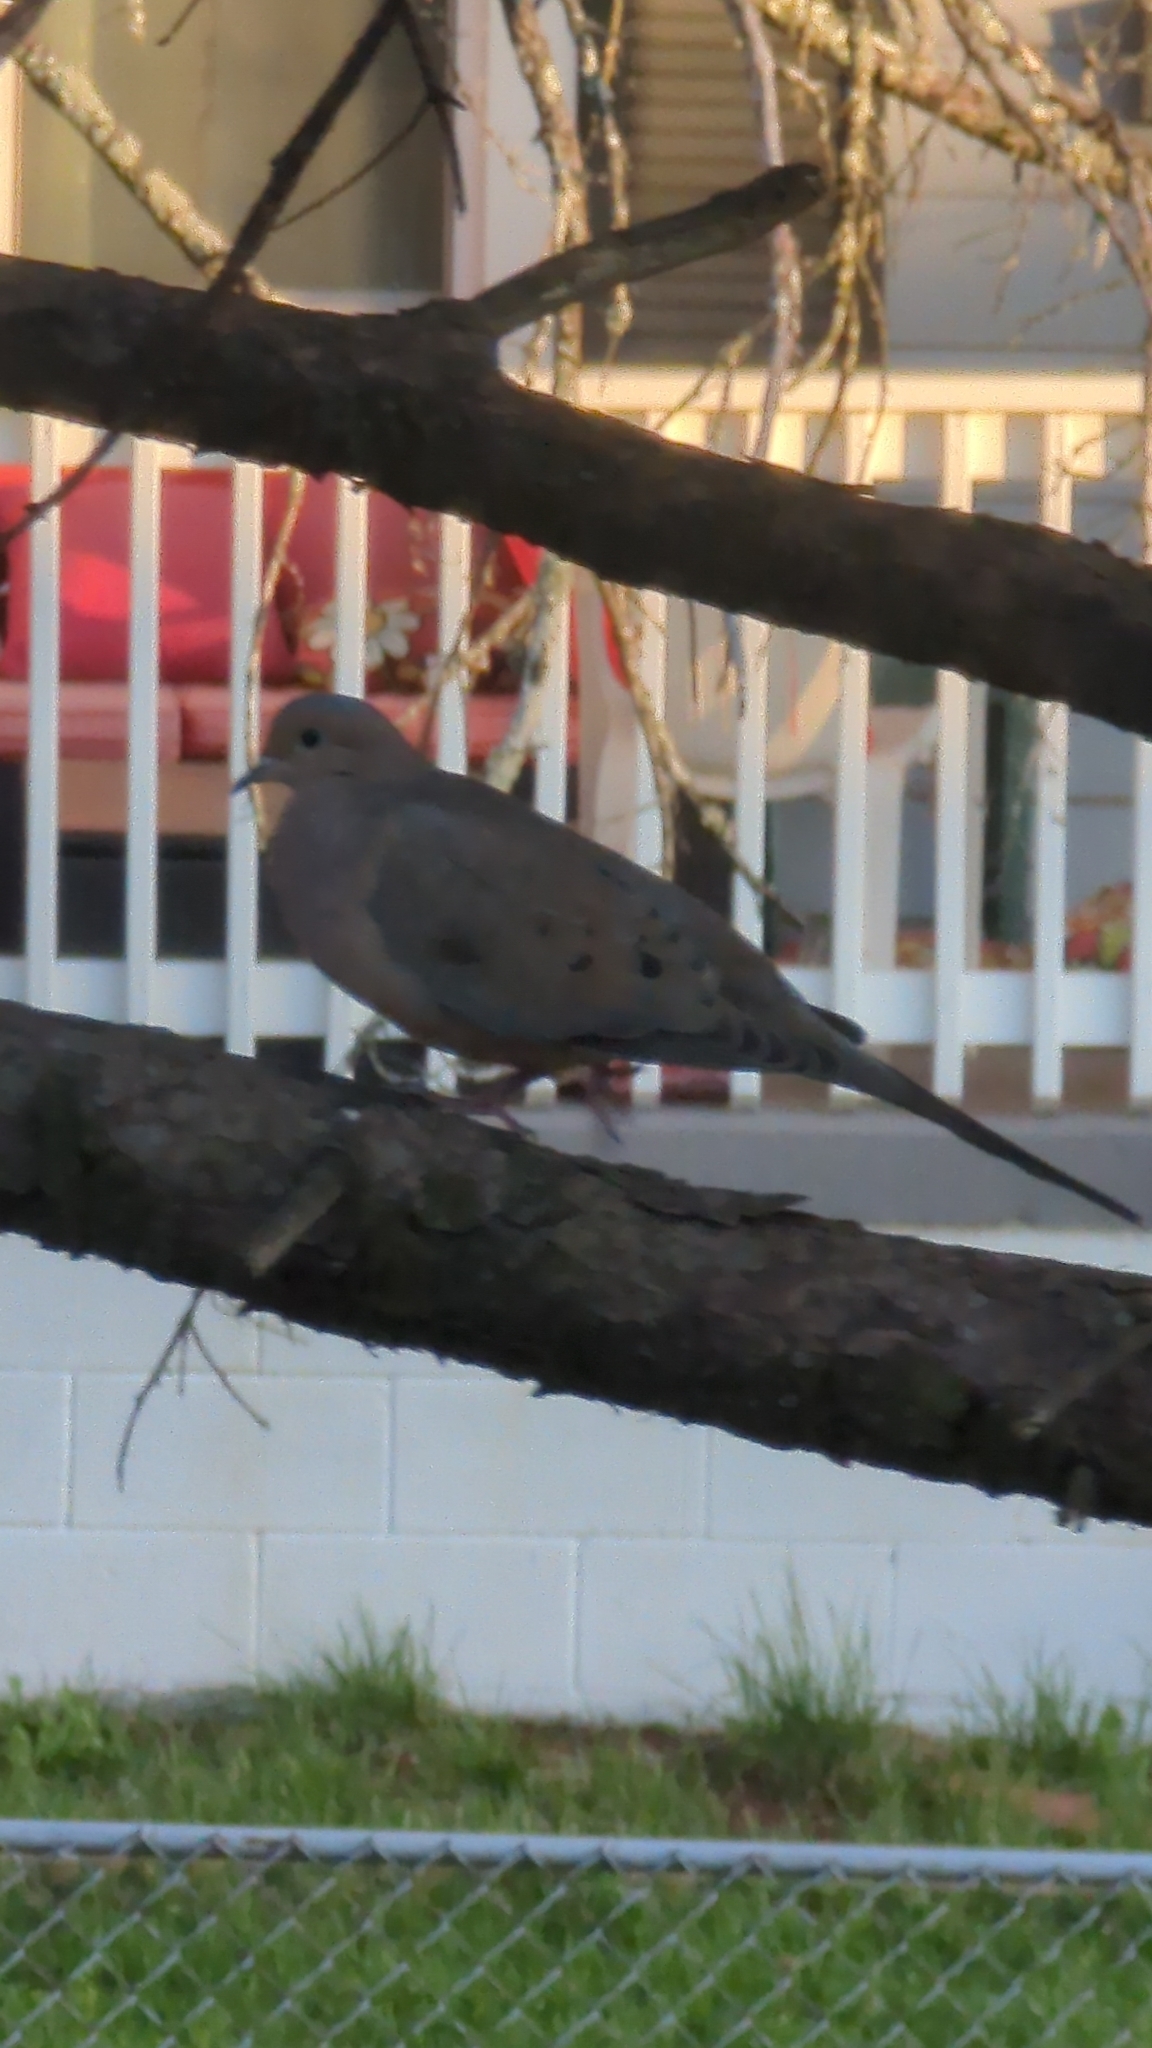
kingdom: Animalia
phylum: Chordata
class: Aves
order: Columbiformes
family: Columbidae
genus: Zenaida
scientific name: Zenaida macroura
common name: Mourning dove
